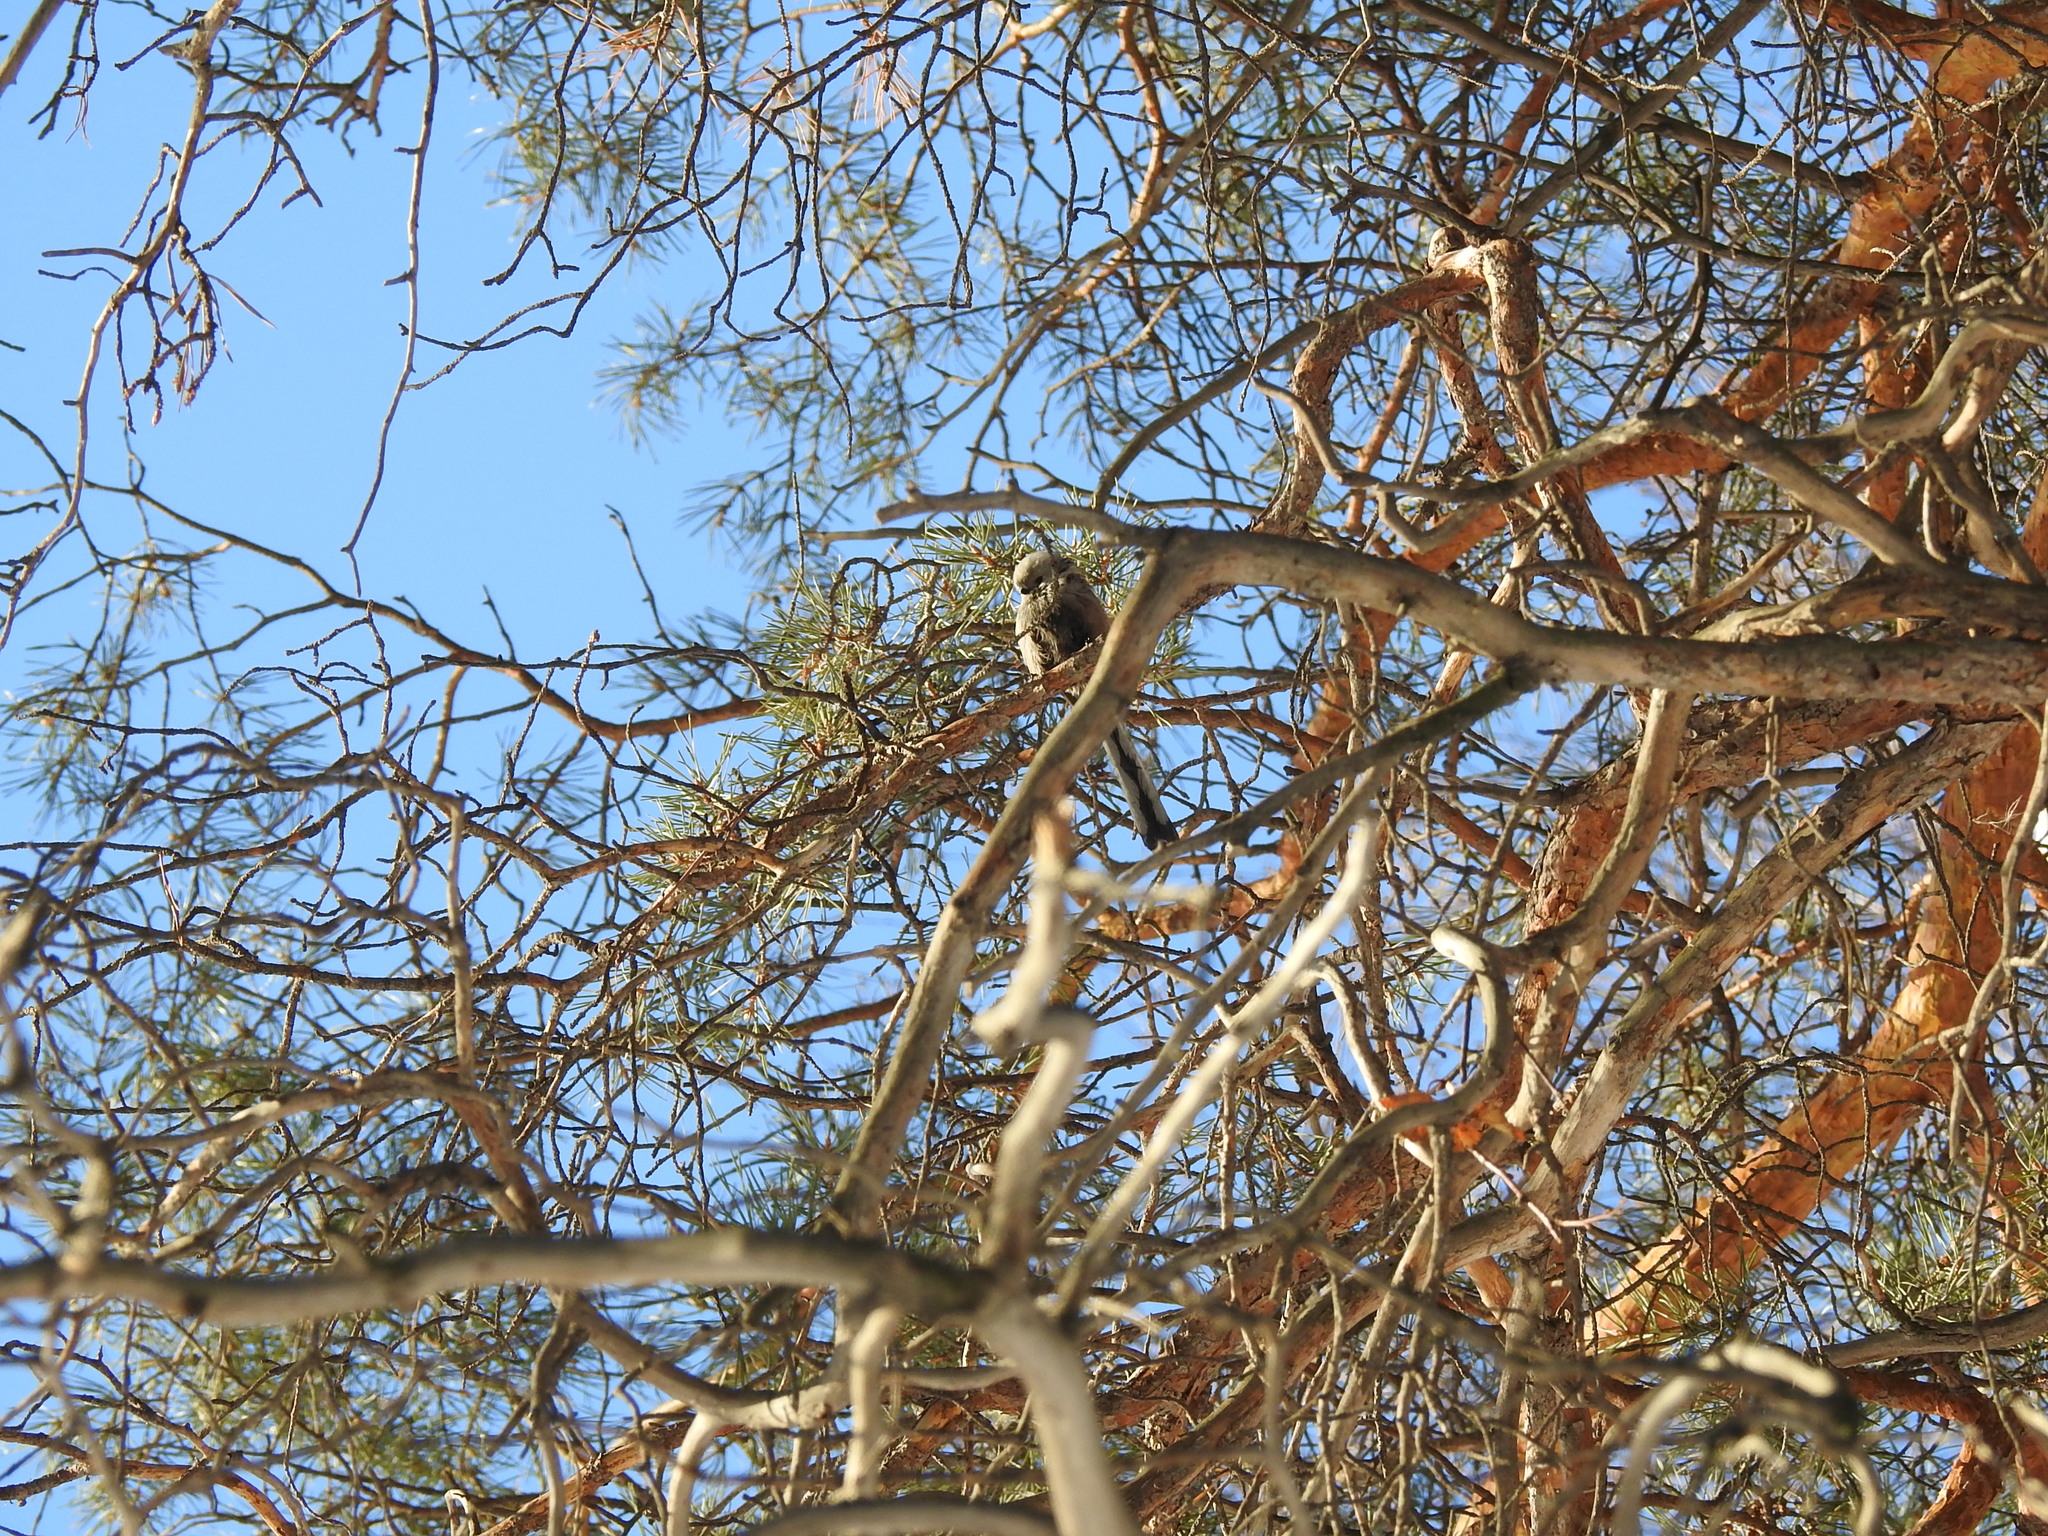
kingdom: Animalia
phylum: Chordata
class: Aves
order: Passeriformes
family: Aegithalidae
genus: Aegithalos
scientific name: Aegithalos caudatus
